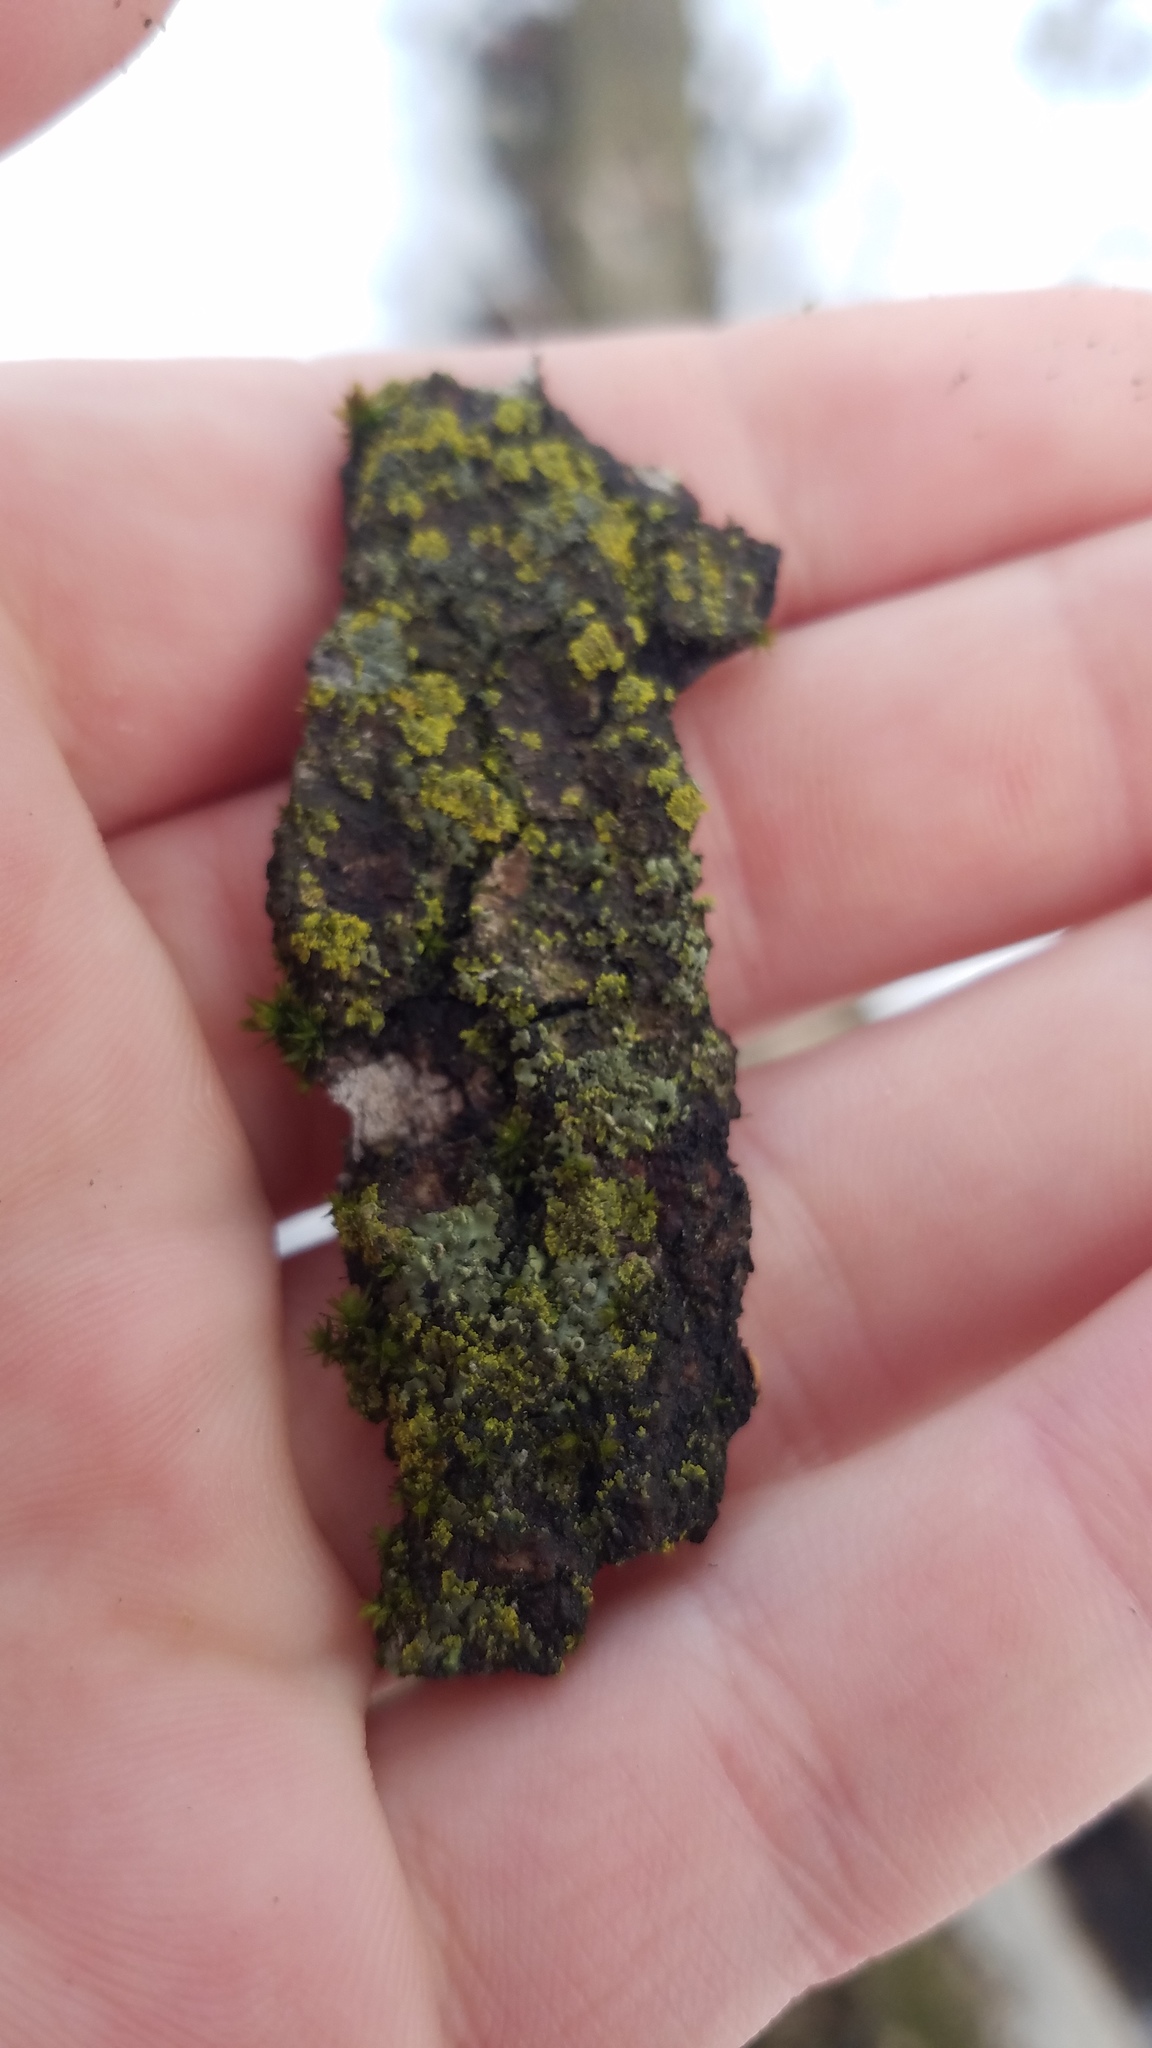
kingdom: Fungi
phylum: Ascomycota
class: Candelariomycetes
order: Candelariales
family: Candelariaceae
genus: Candelaria
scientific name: Candelaria concolor
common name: Candleflame lichen
